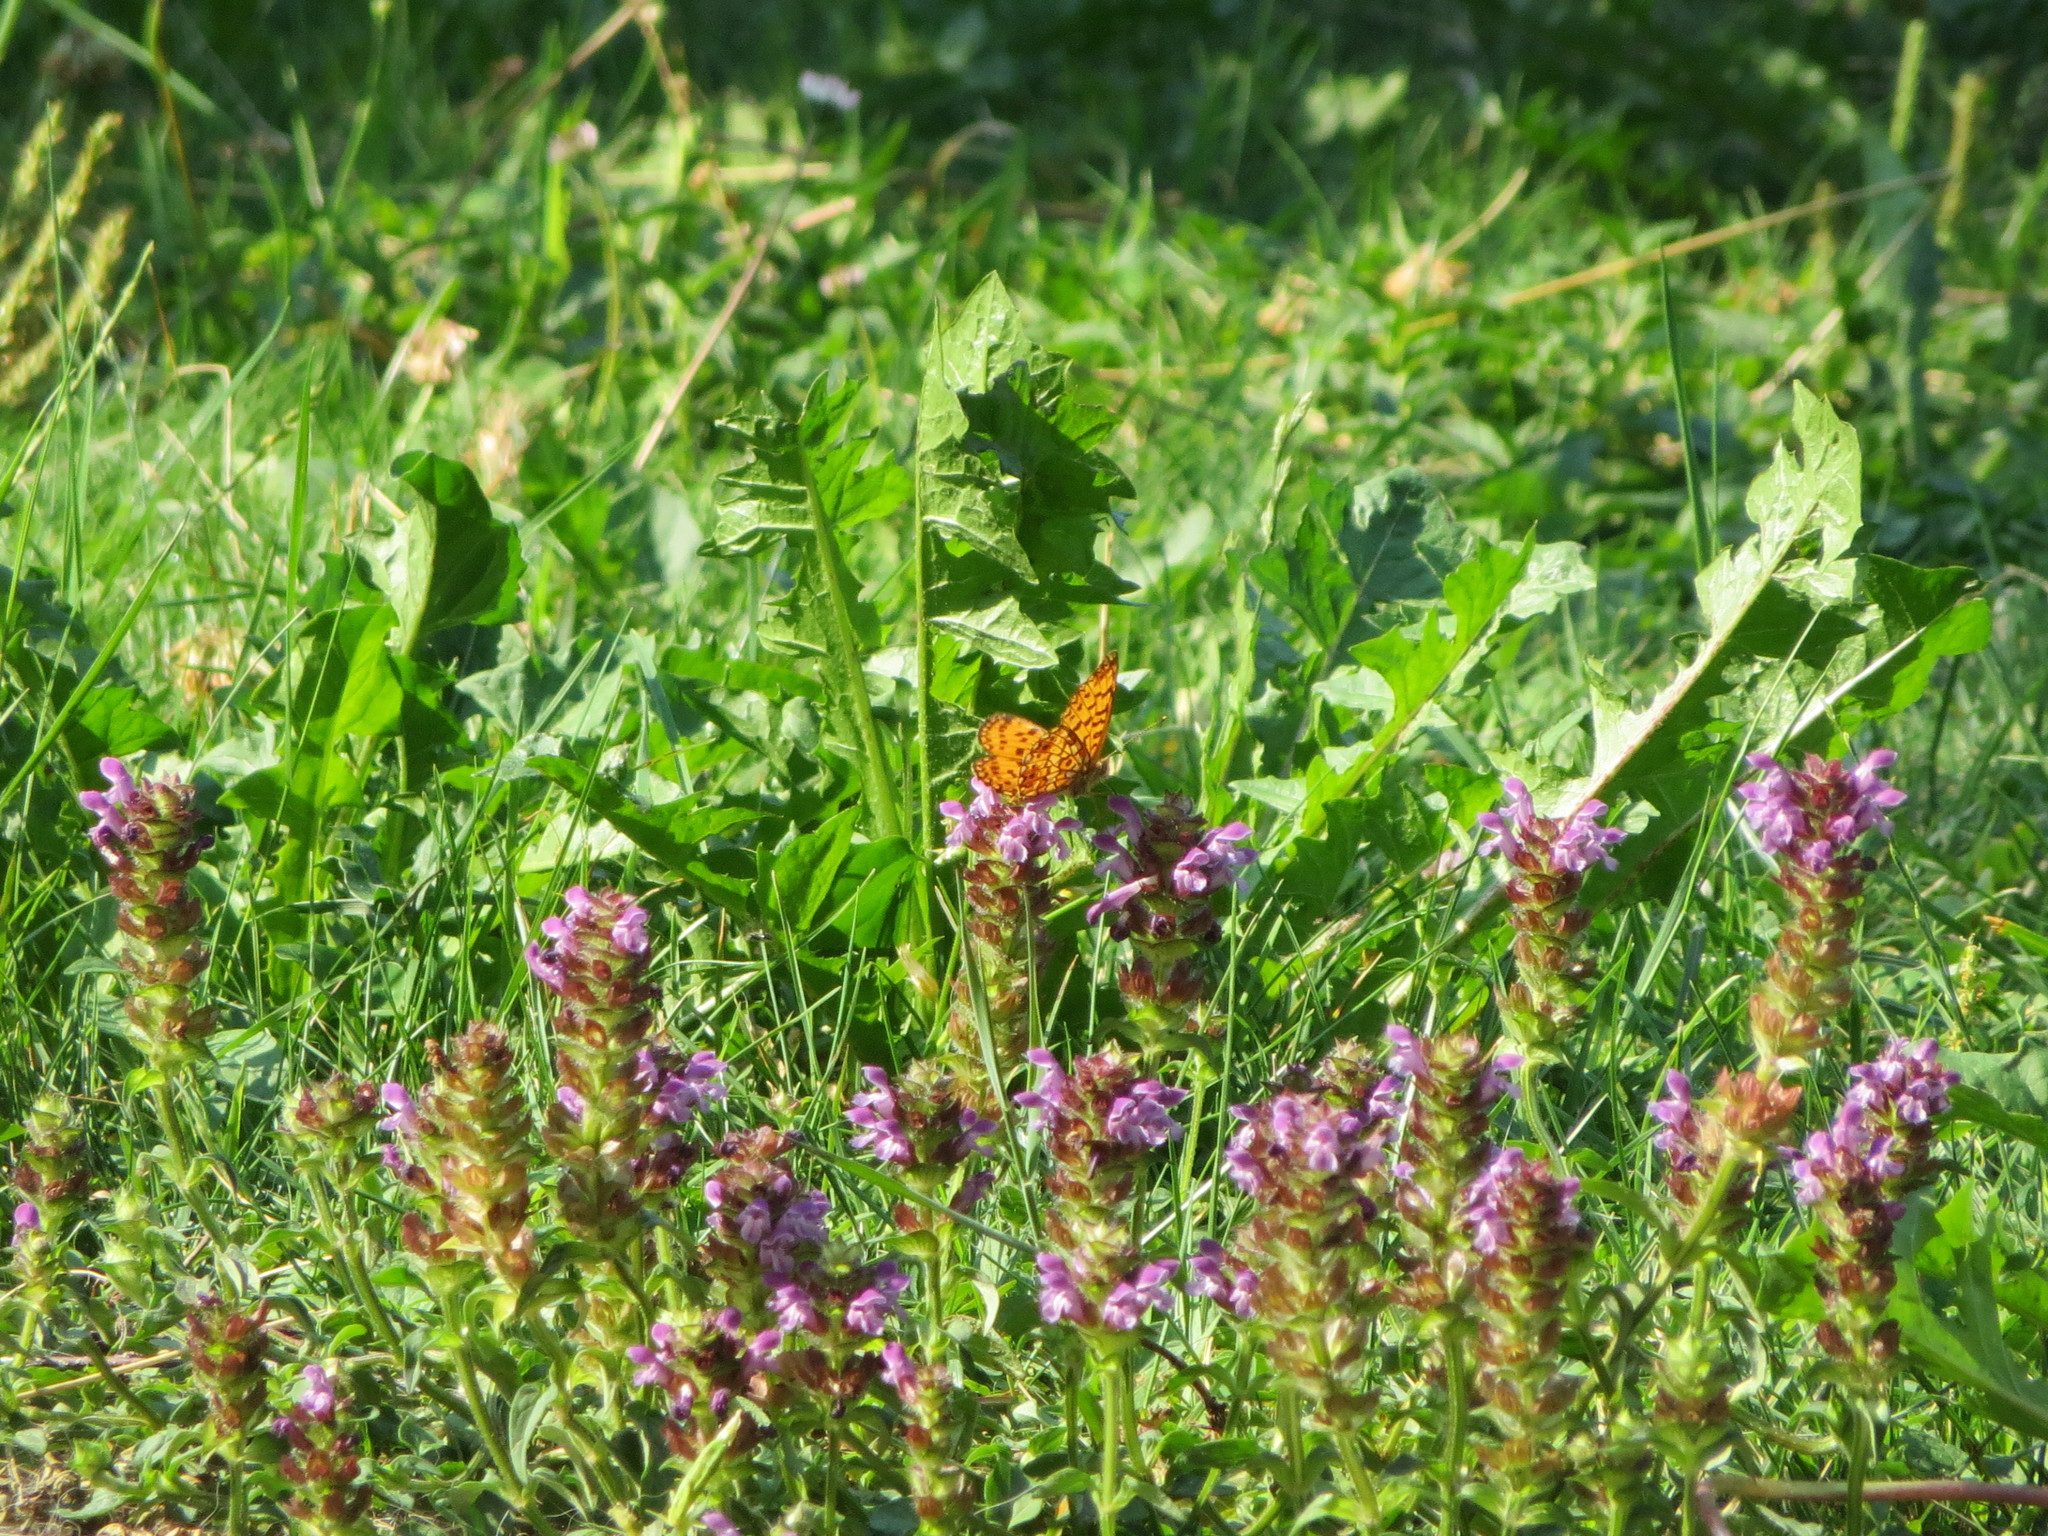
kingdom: Animalia
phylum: Arthropoda
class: Insecta
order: Lepidoptera
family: Nymphalidae
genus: Boloria
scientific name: Boloria selene
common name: Small pearl-bordered fritillary
